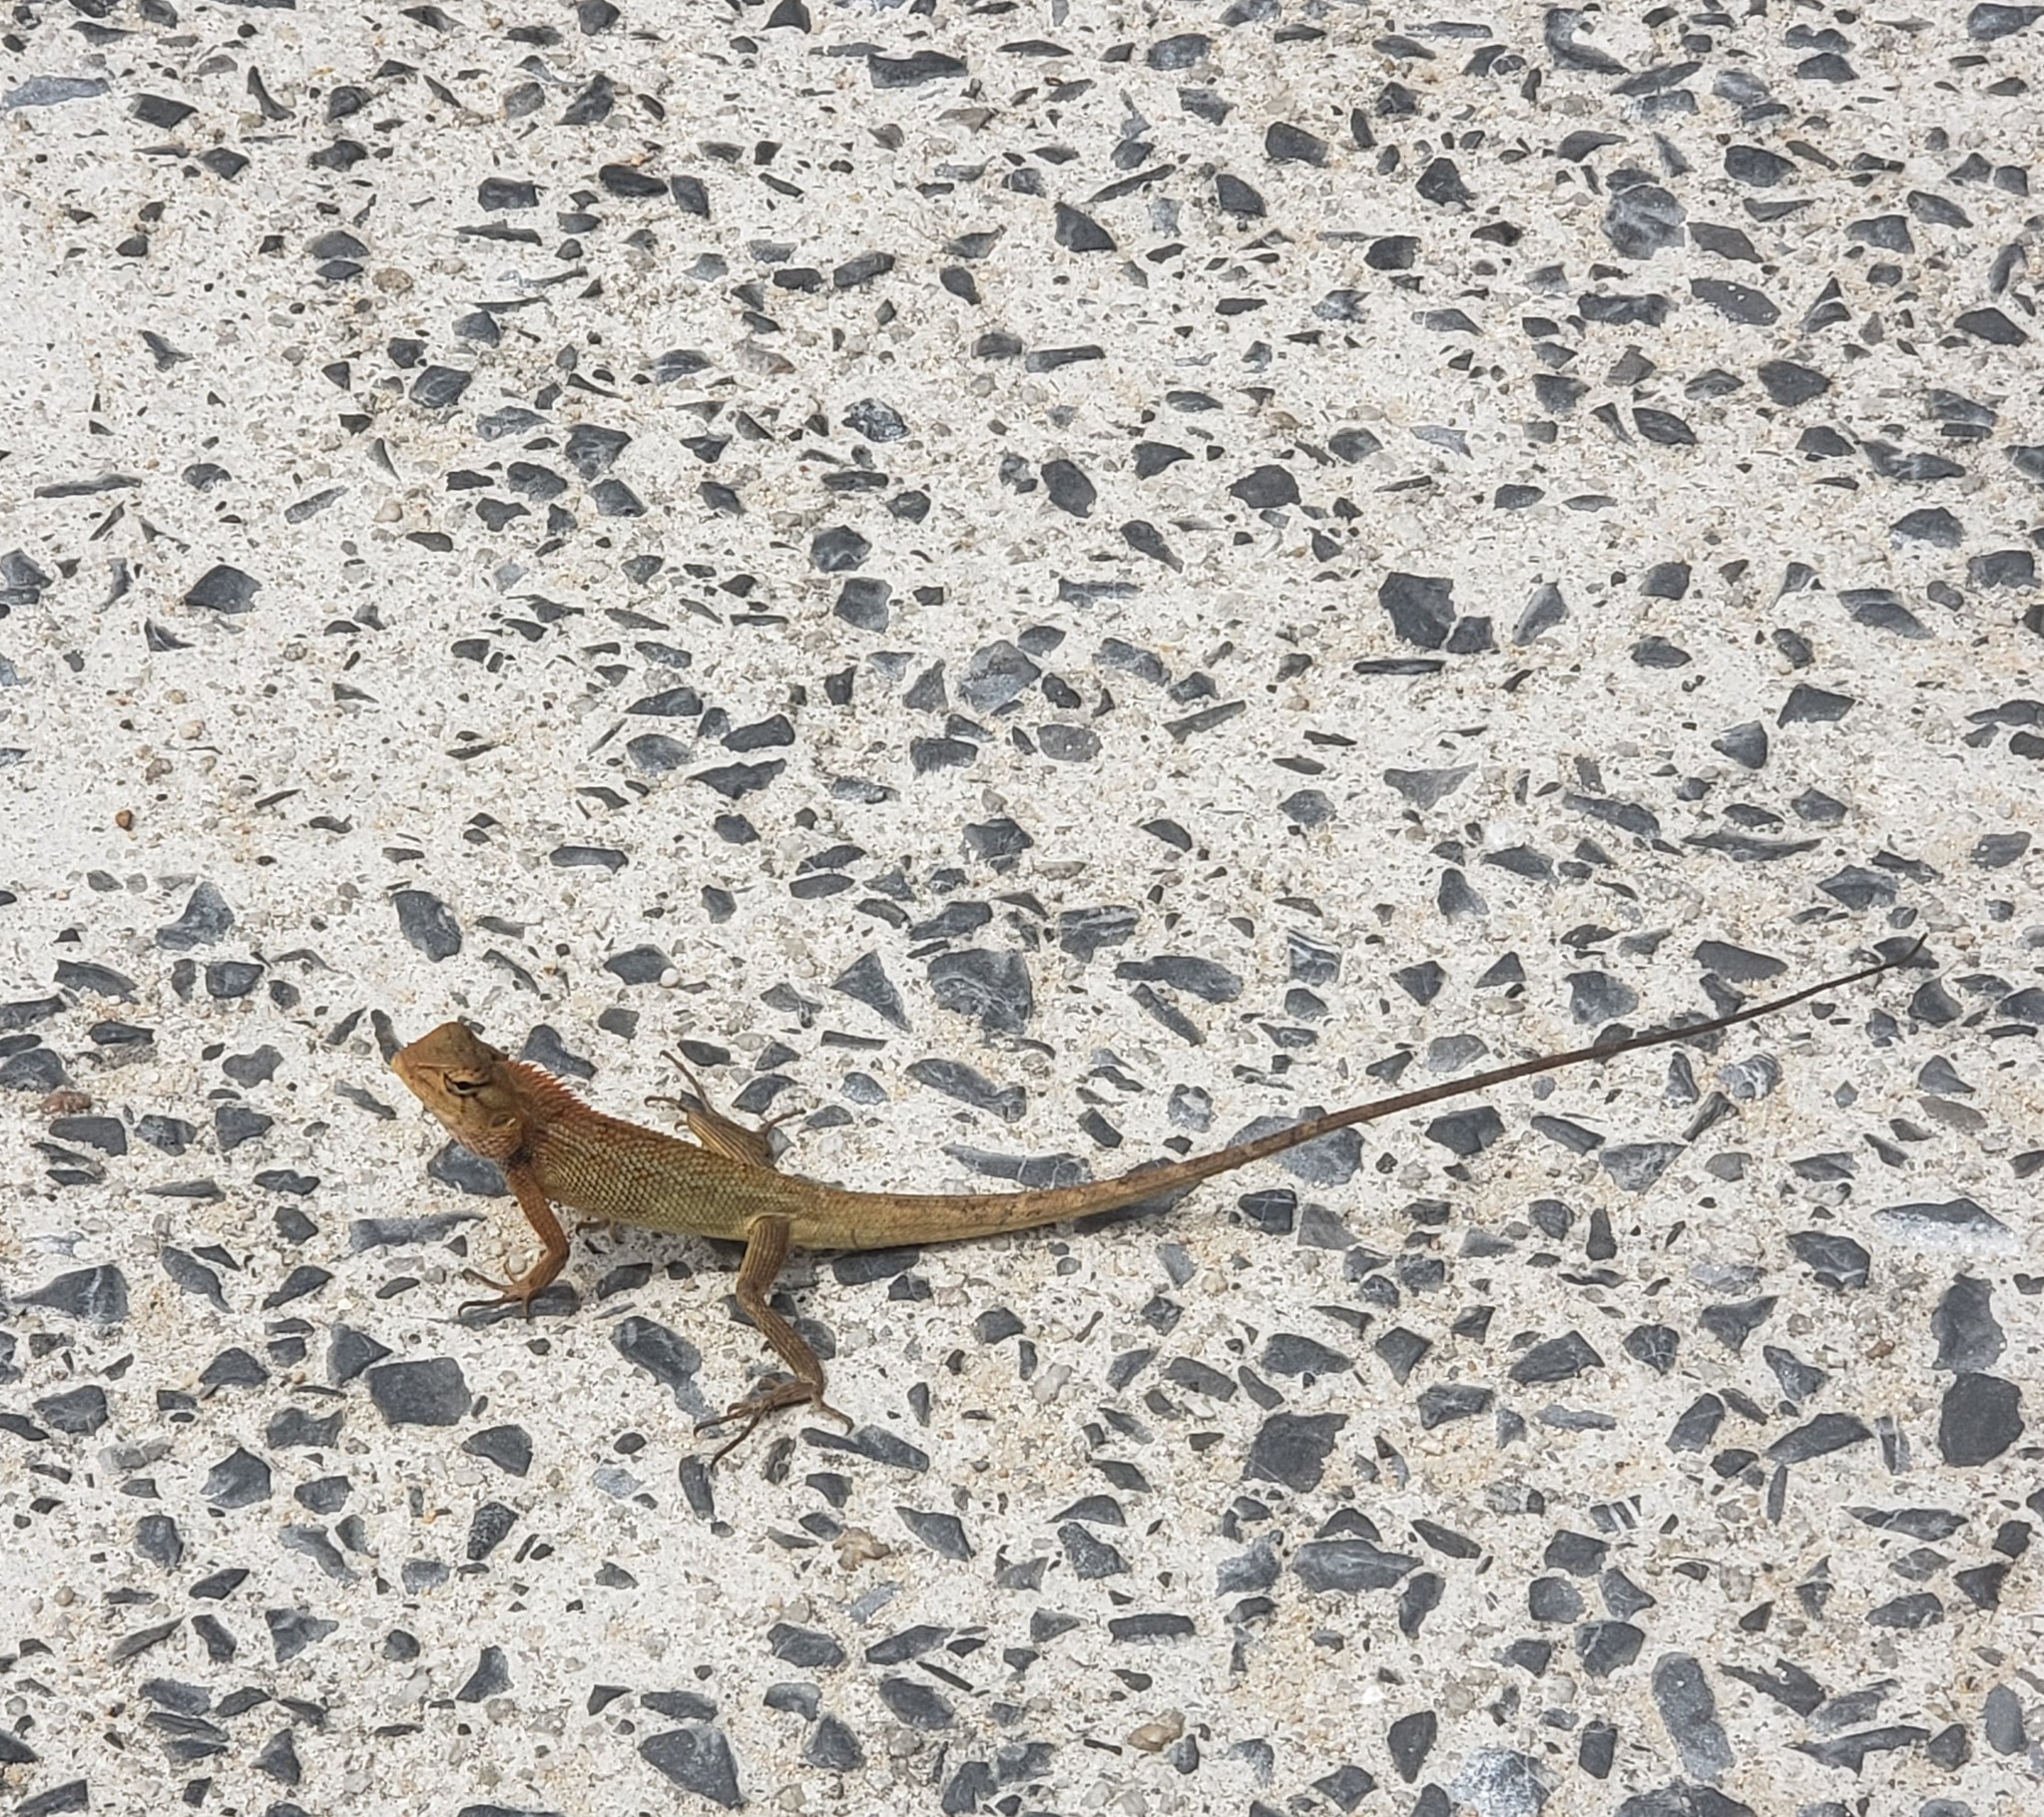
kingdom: Animalia
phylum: Chordata
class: Squamata
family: Agamidae
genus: Calotes
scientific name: Calotes versicolor
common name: Oriental garden lizard
